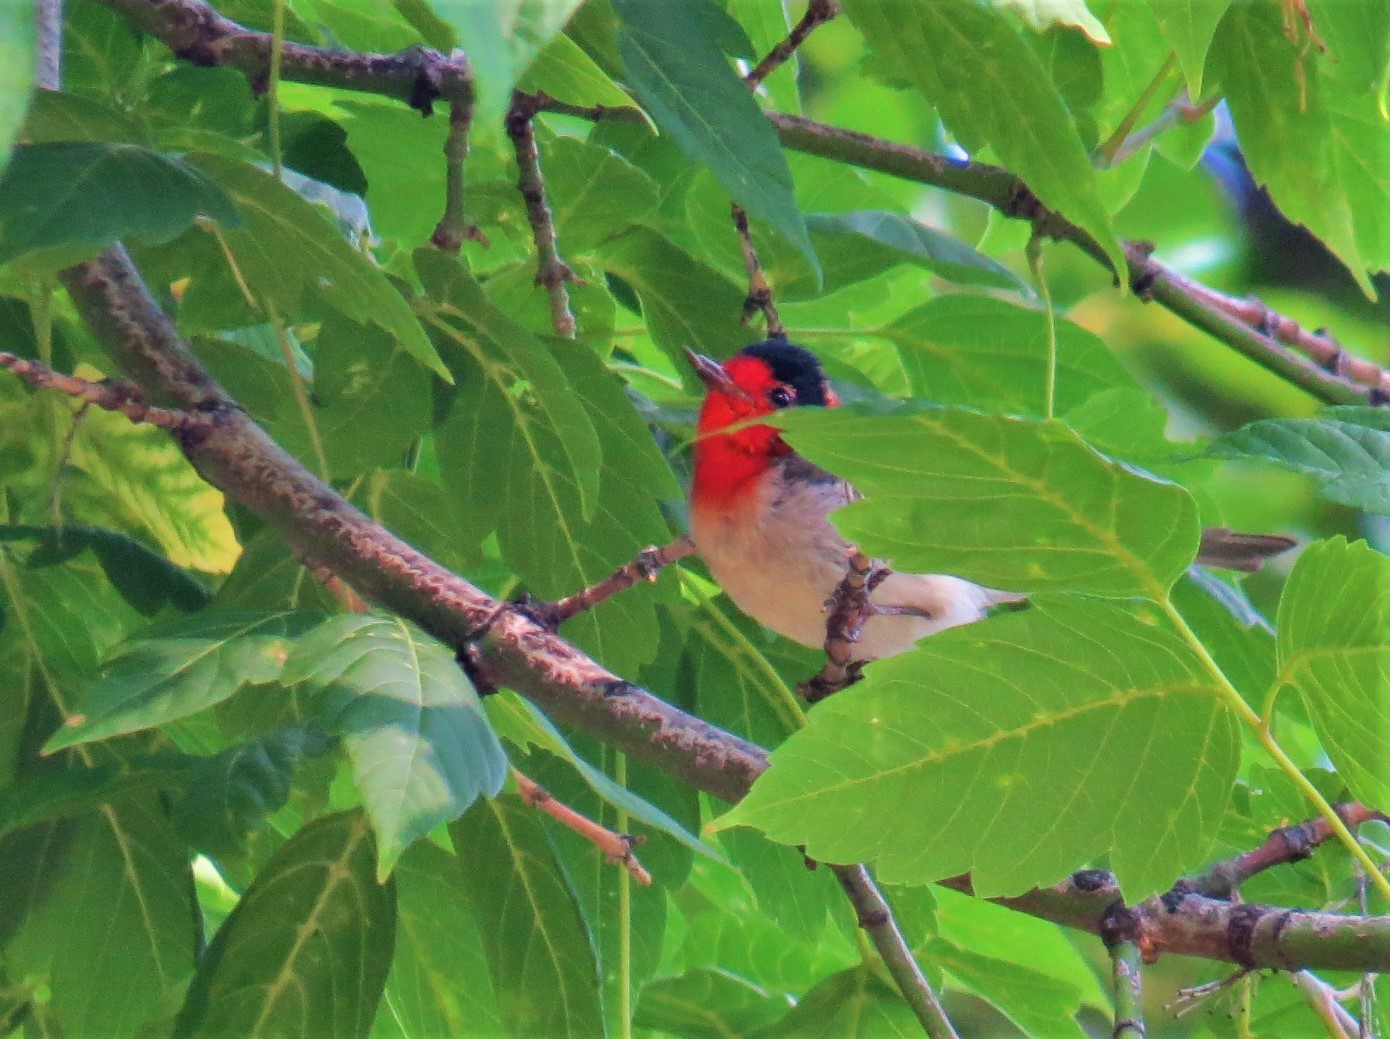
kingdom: Animalia
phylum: Chordata
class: Aves
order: Passeriformes
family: Parulidae
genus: Cardellina
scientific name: Cardellina rubrifrons
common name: Red-faced warbler
